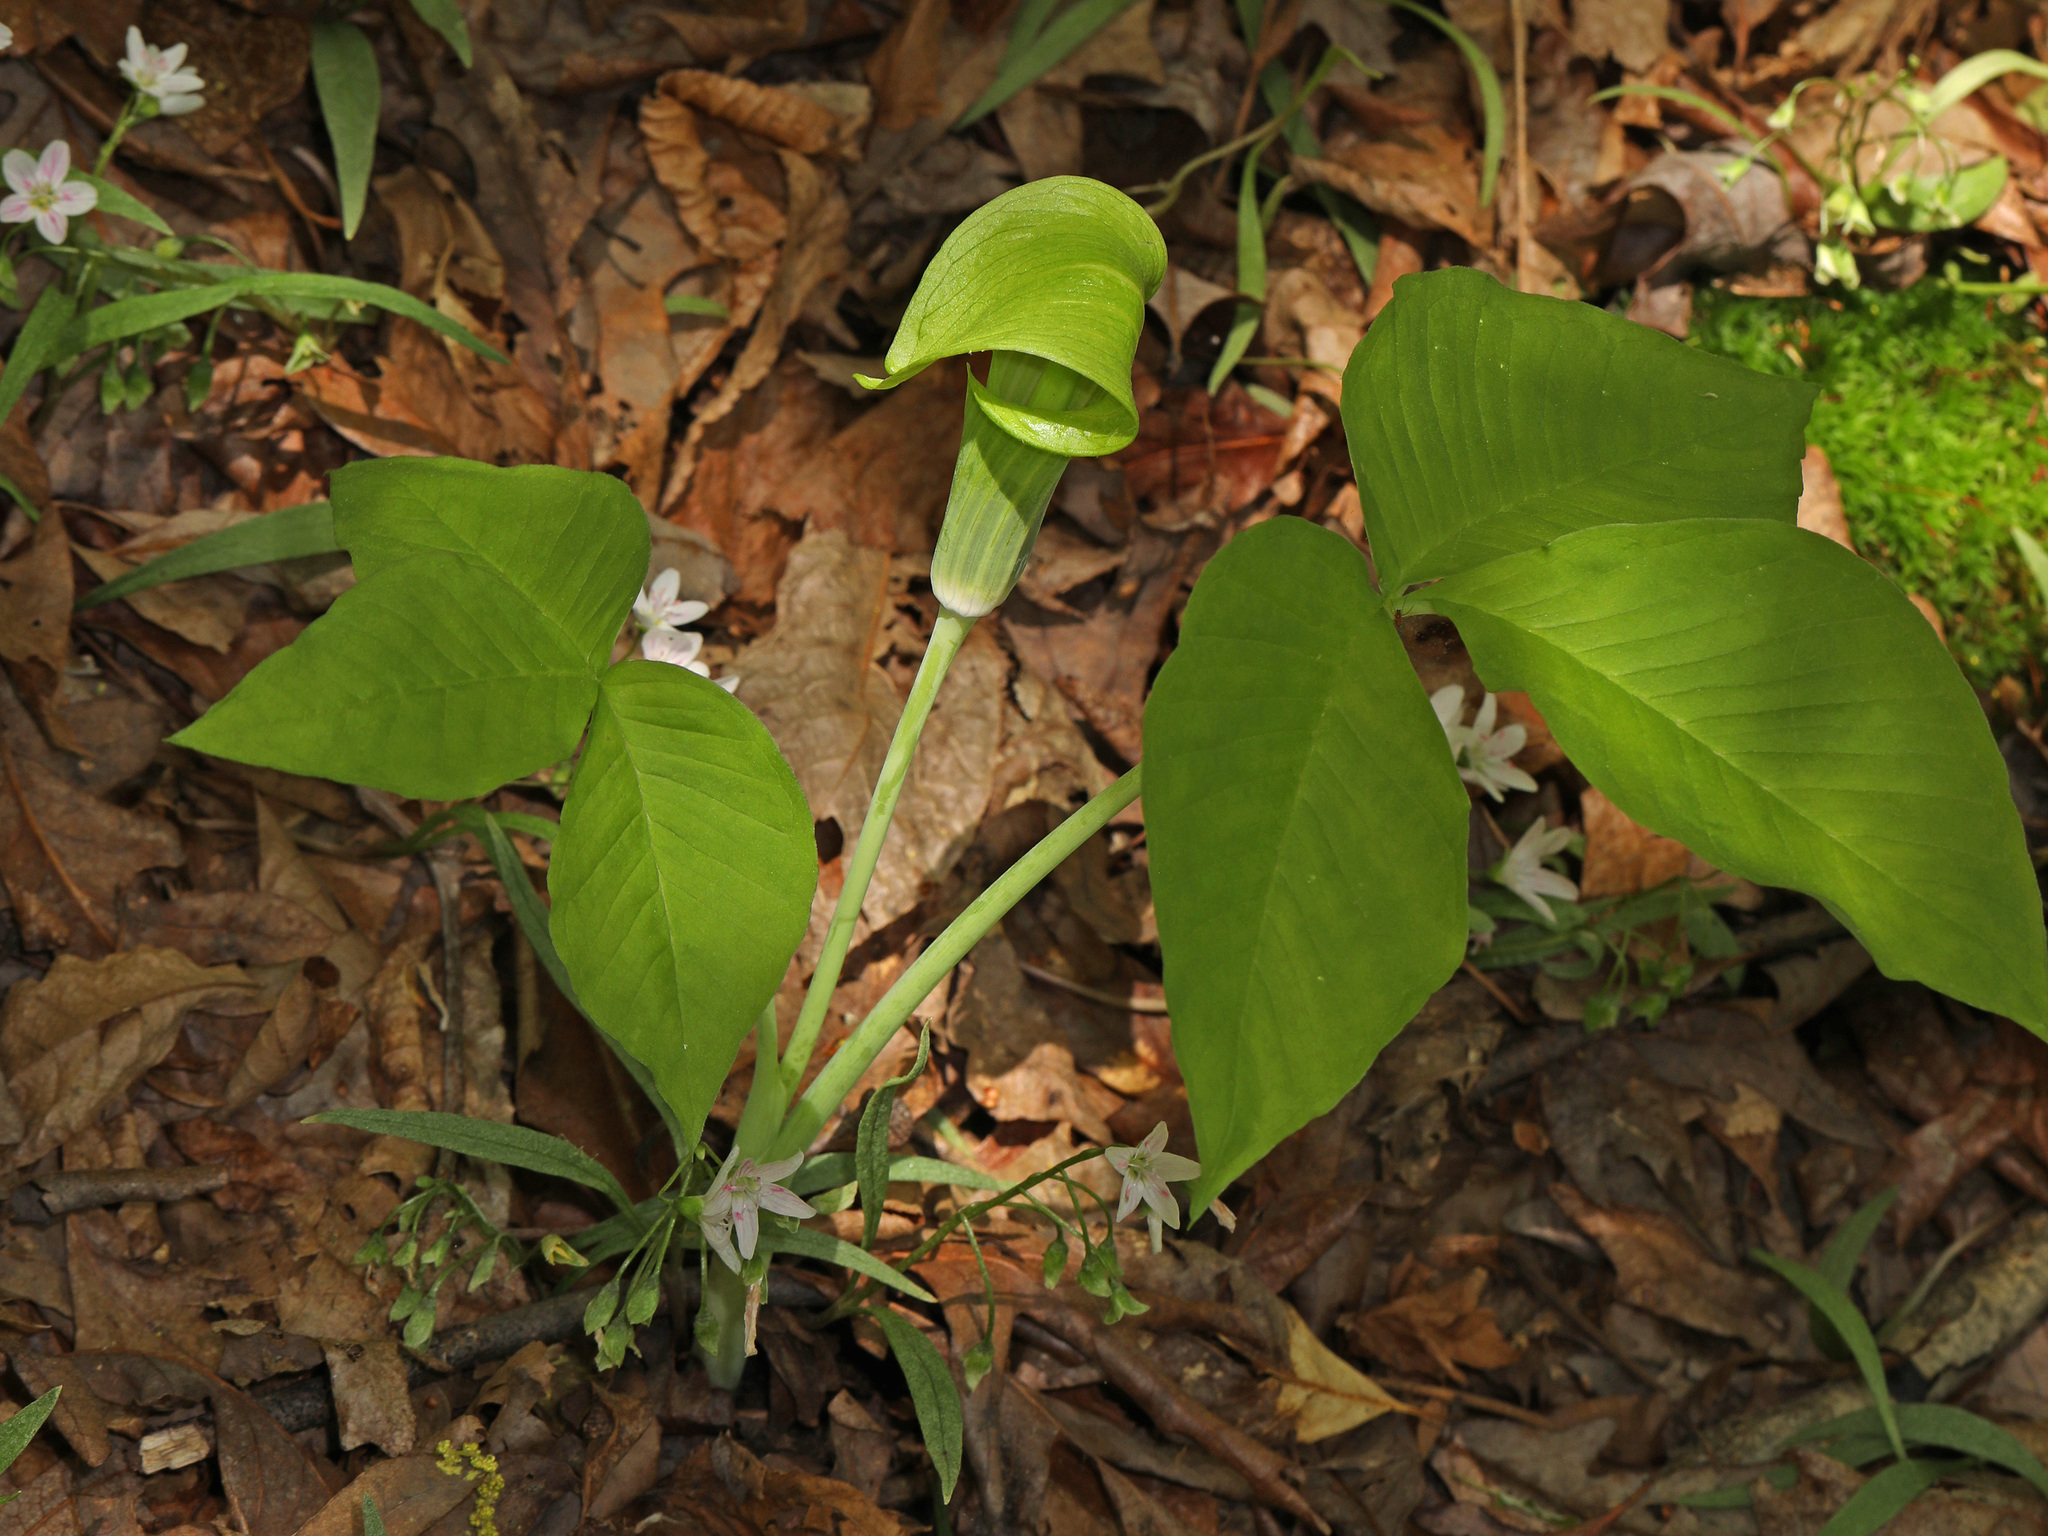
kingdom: Plantae
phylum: Tracheophyta
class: Liliopsida
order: Alismatales
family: Araceae
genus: Arisaema
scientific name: Arisaema triphyllum
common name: Jack-in-the-pulpit
